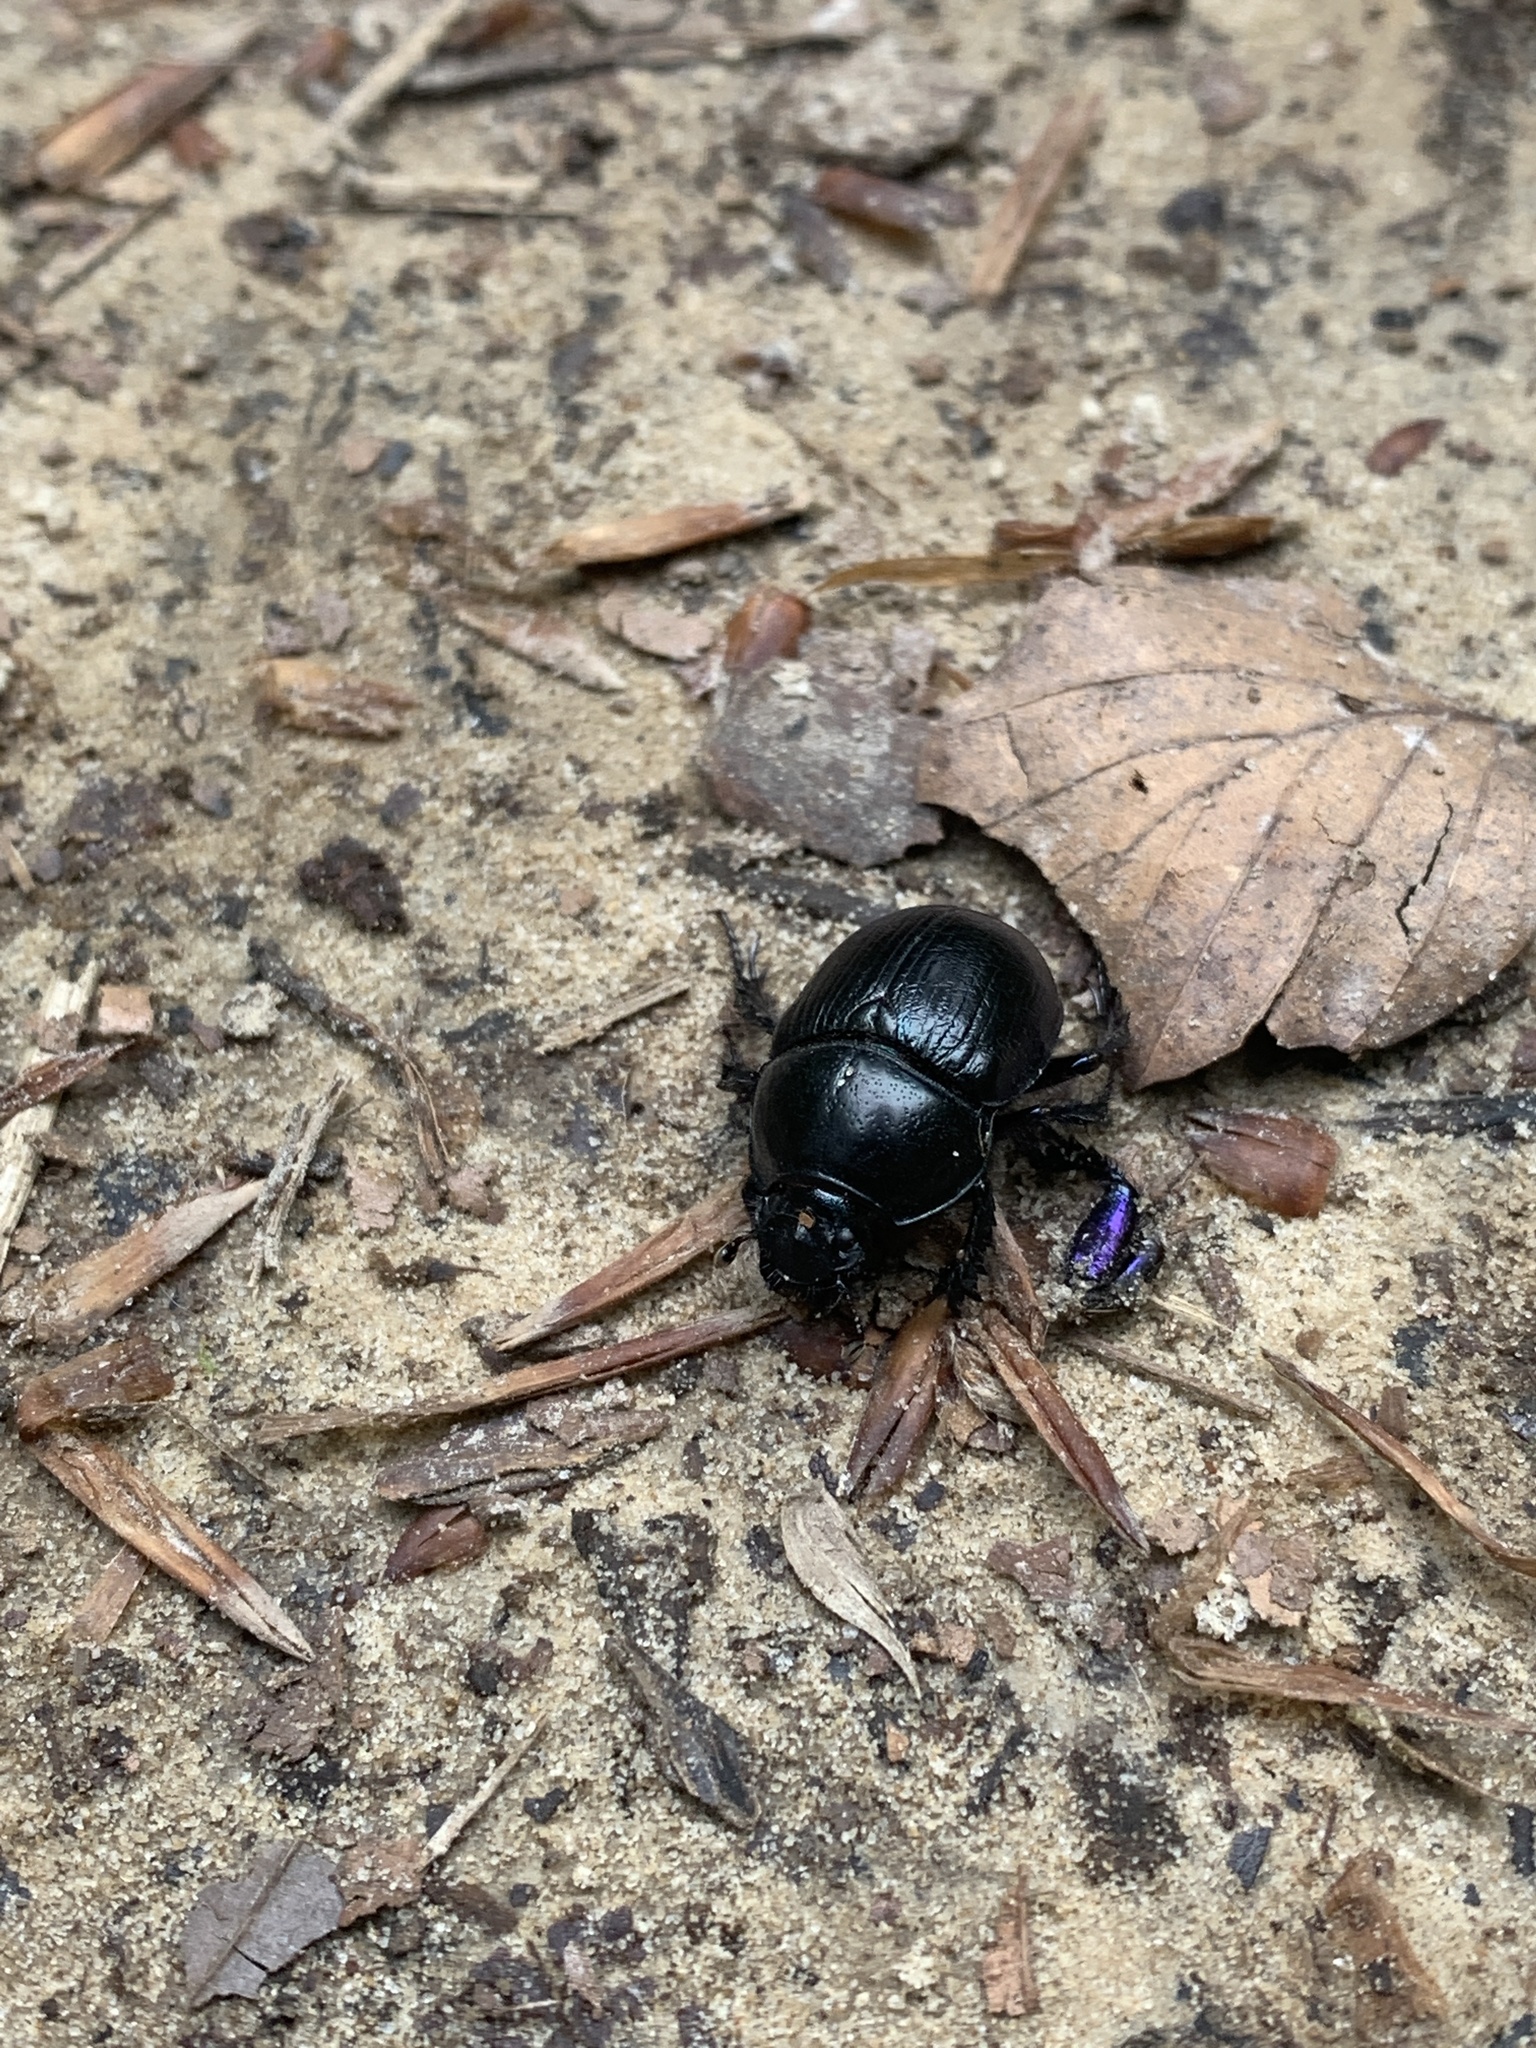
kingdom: Animalia
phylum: Arthropoda
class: Insecta
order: Coleoptera
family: Geotrupidae
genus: Anoplotrupes
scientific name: Anoplotrupes stercorosus
